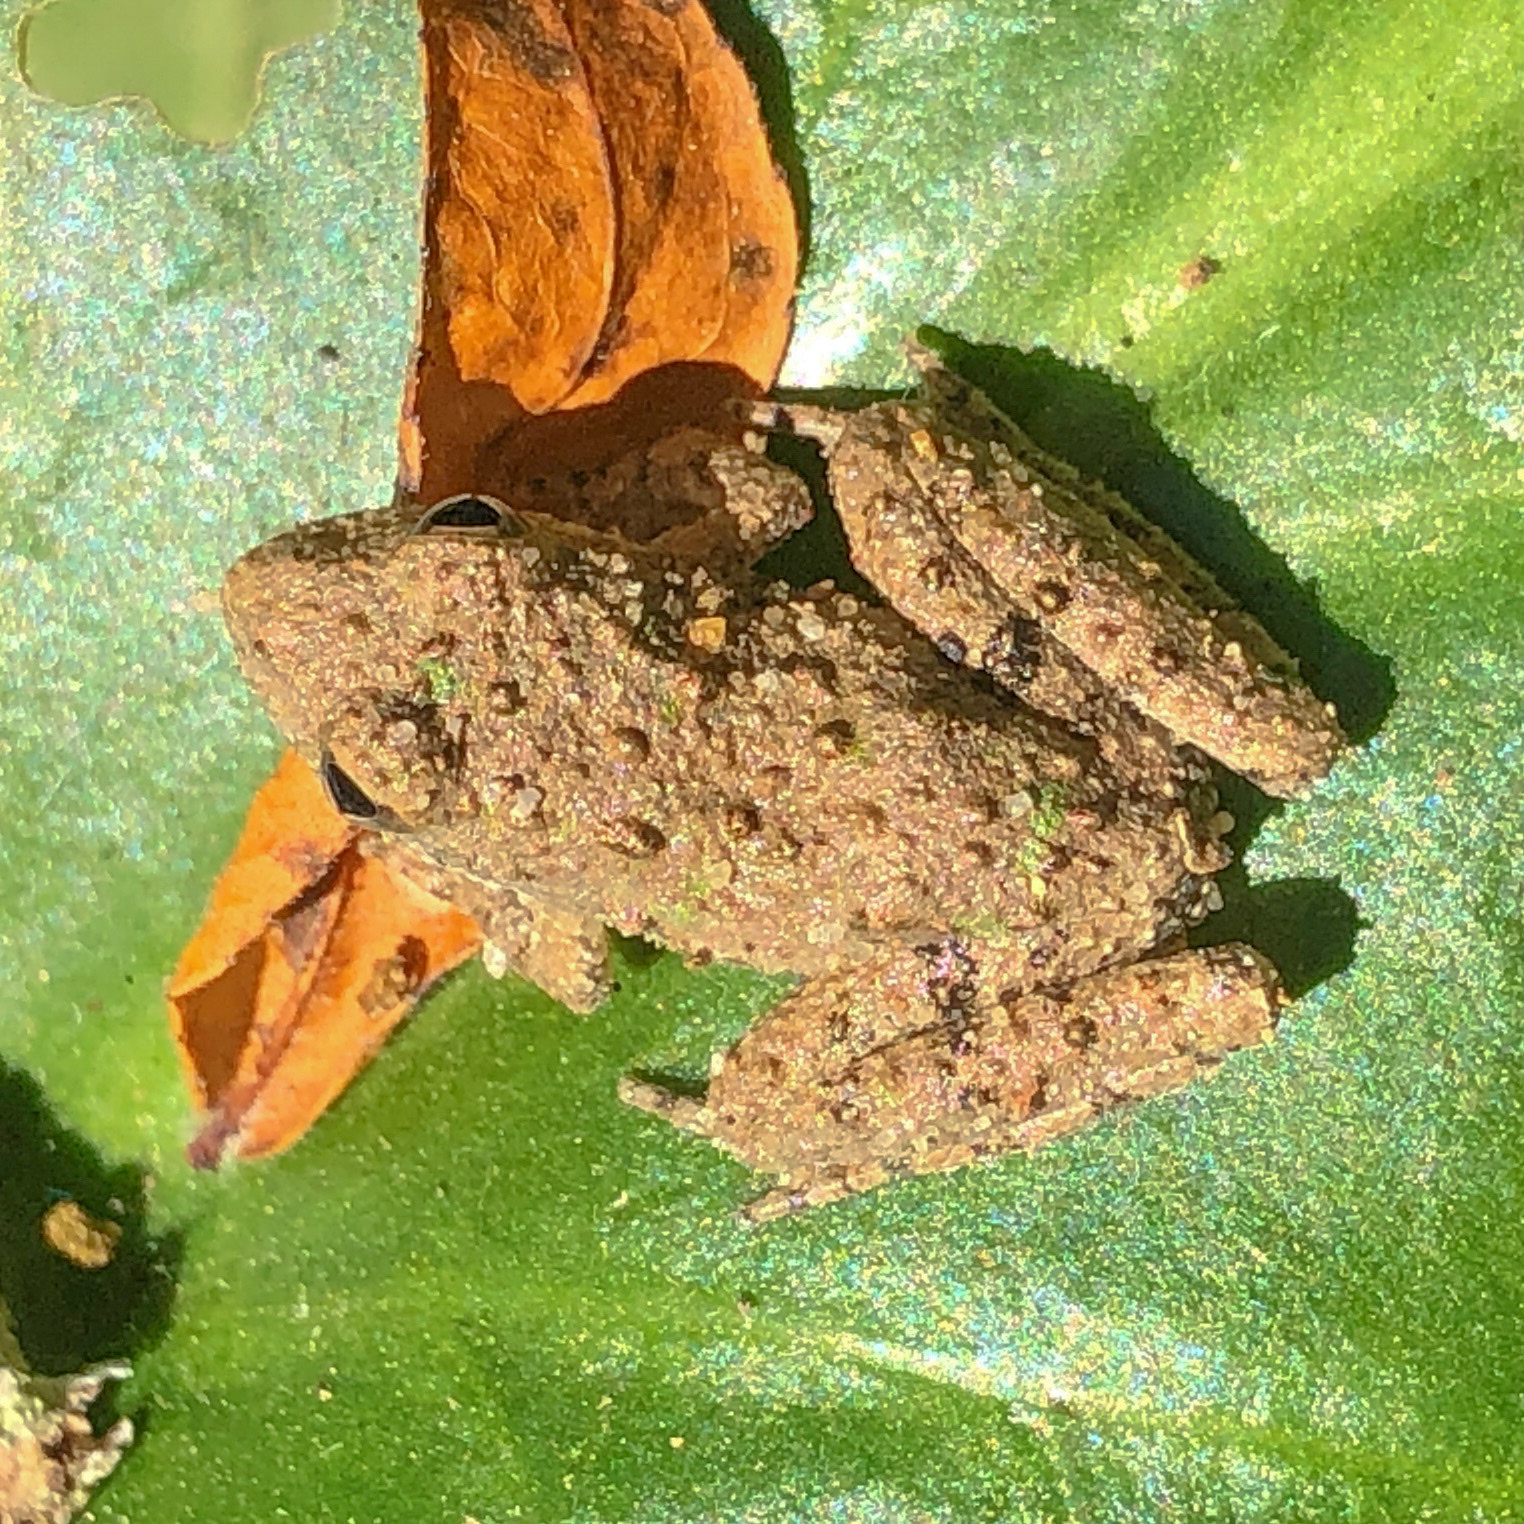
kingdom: Animalia
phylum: Chordata
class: Amphibia
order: Anura
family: Hylidae
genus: Acris
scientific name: Acris blanchardi
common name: Blanchard's cricket frog
